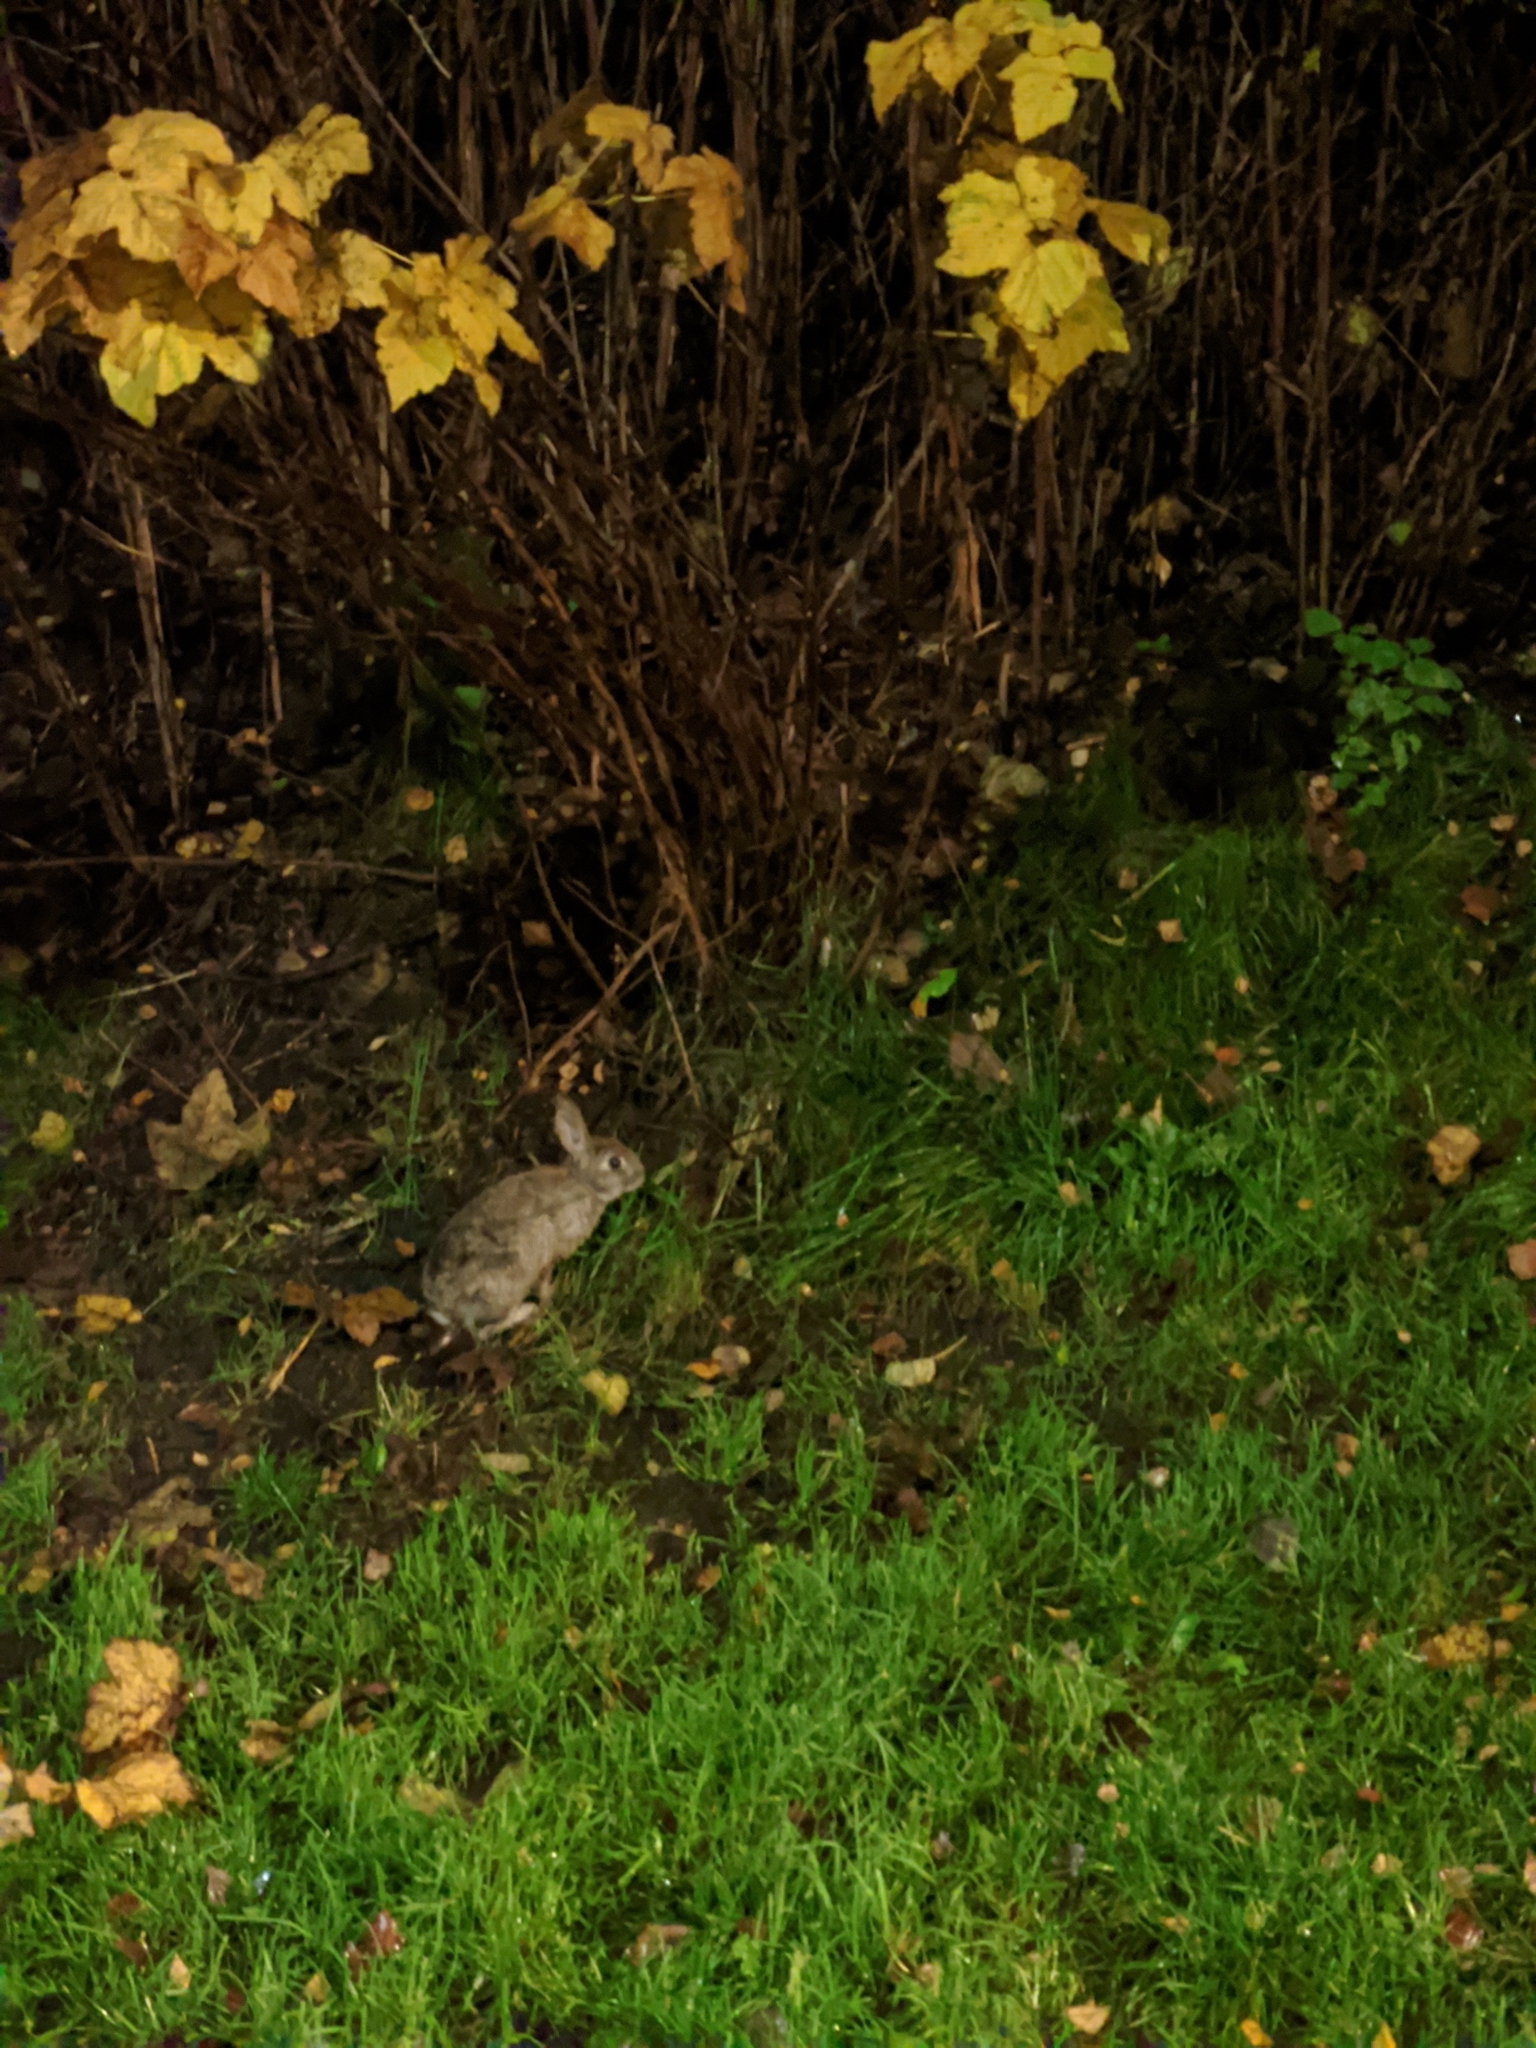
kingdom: Animalia
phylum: Chordata
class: Mammalia
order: Lagomorpha
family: Leporidae
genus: Oryctolagus
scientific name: Oryctolagus cuniculus
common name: European rabbit
